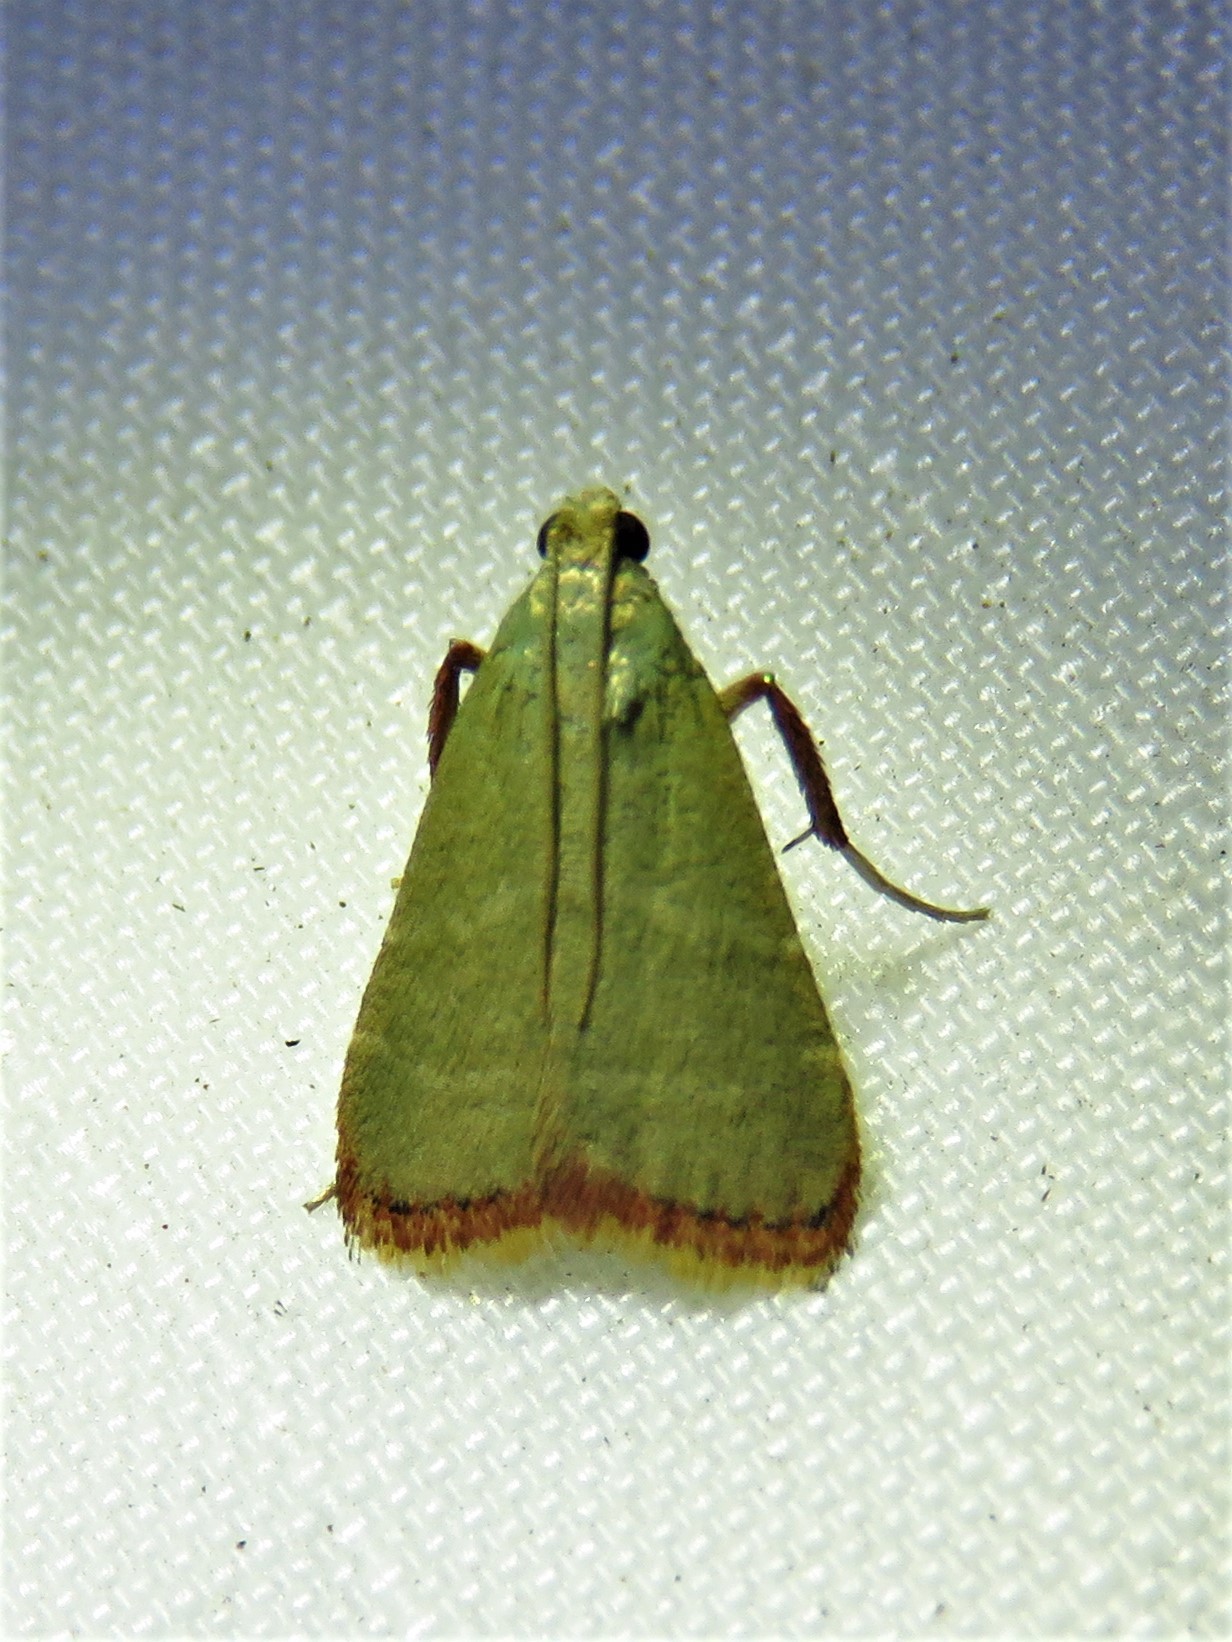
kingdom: Animalia
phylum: Arthropoda
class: Insecta
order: Lepidoptera
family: Pyralidae
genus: Arta
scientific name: Arta olivalis
